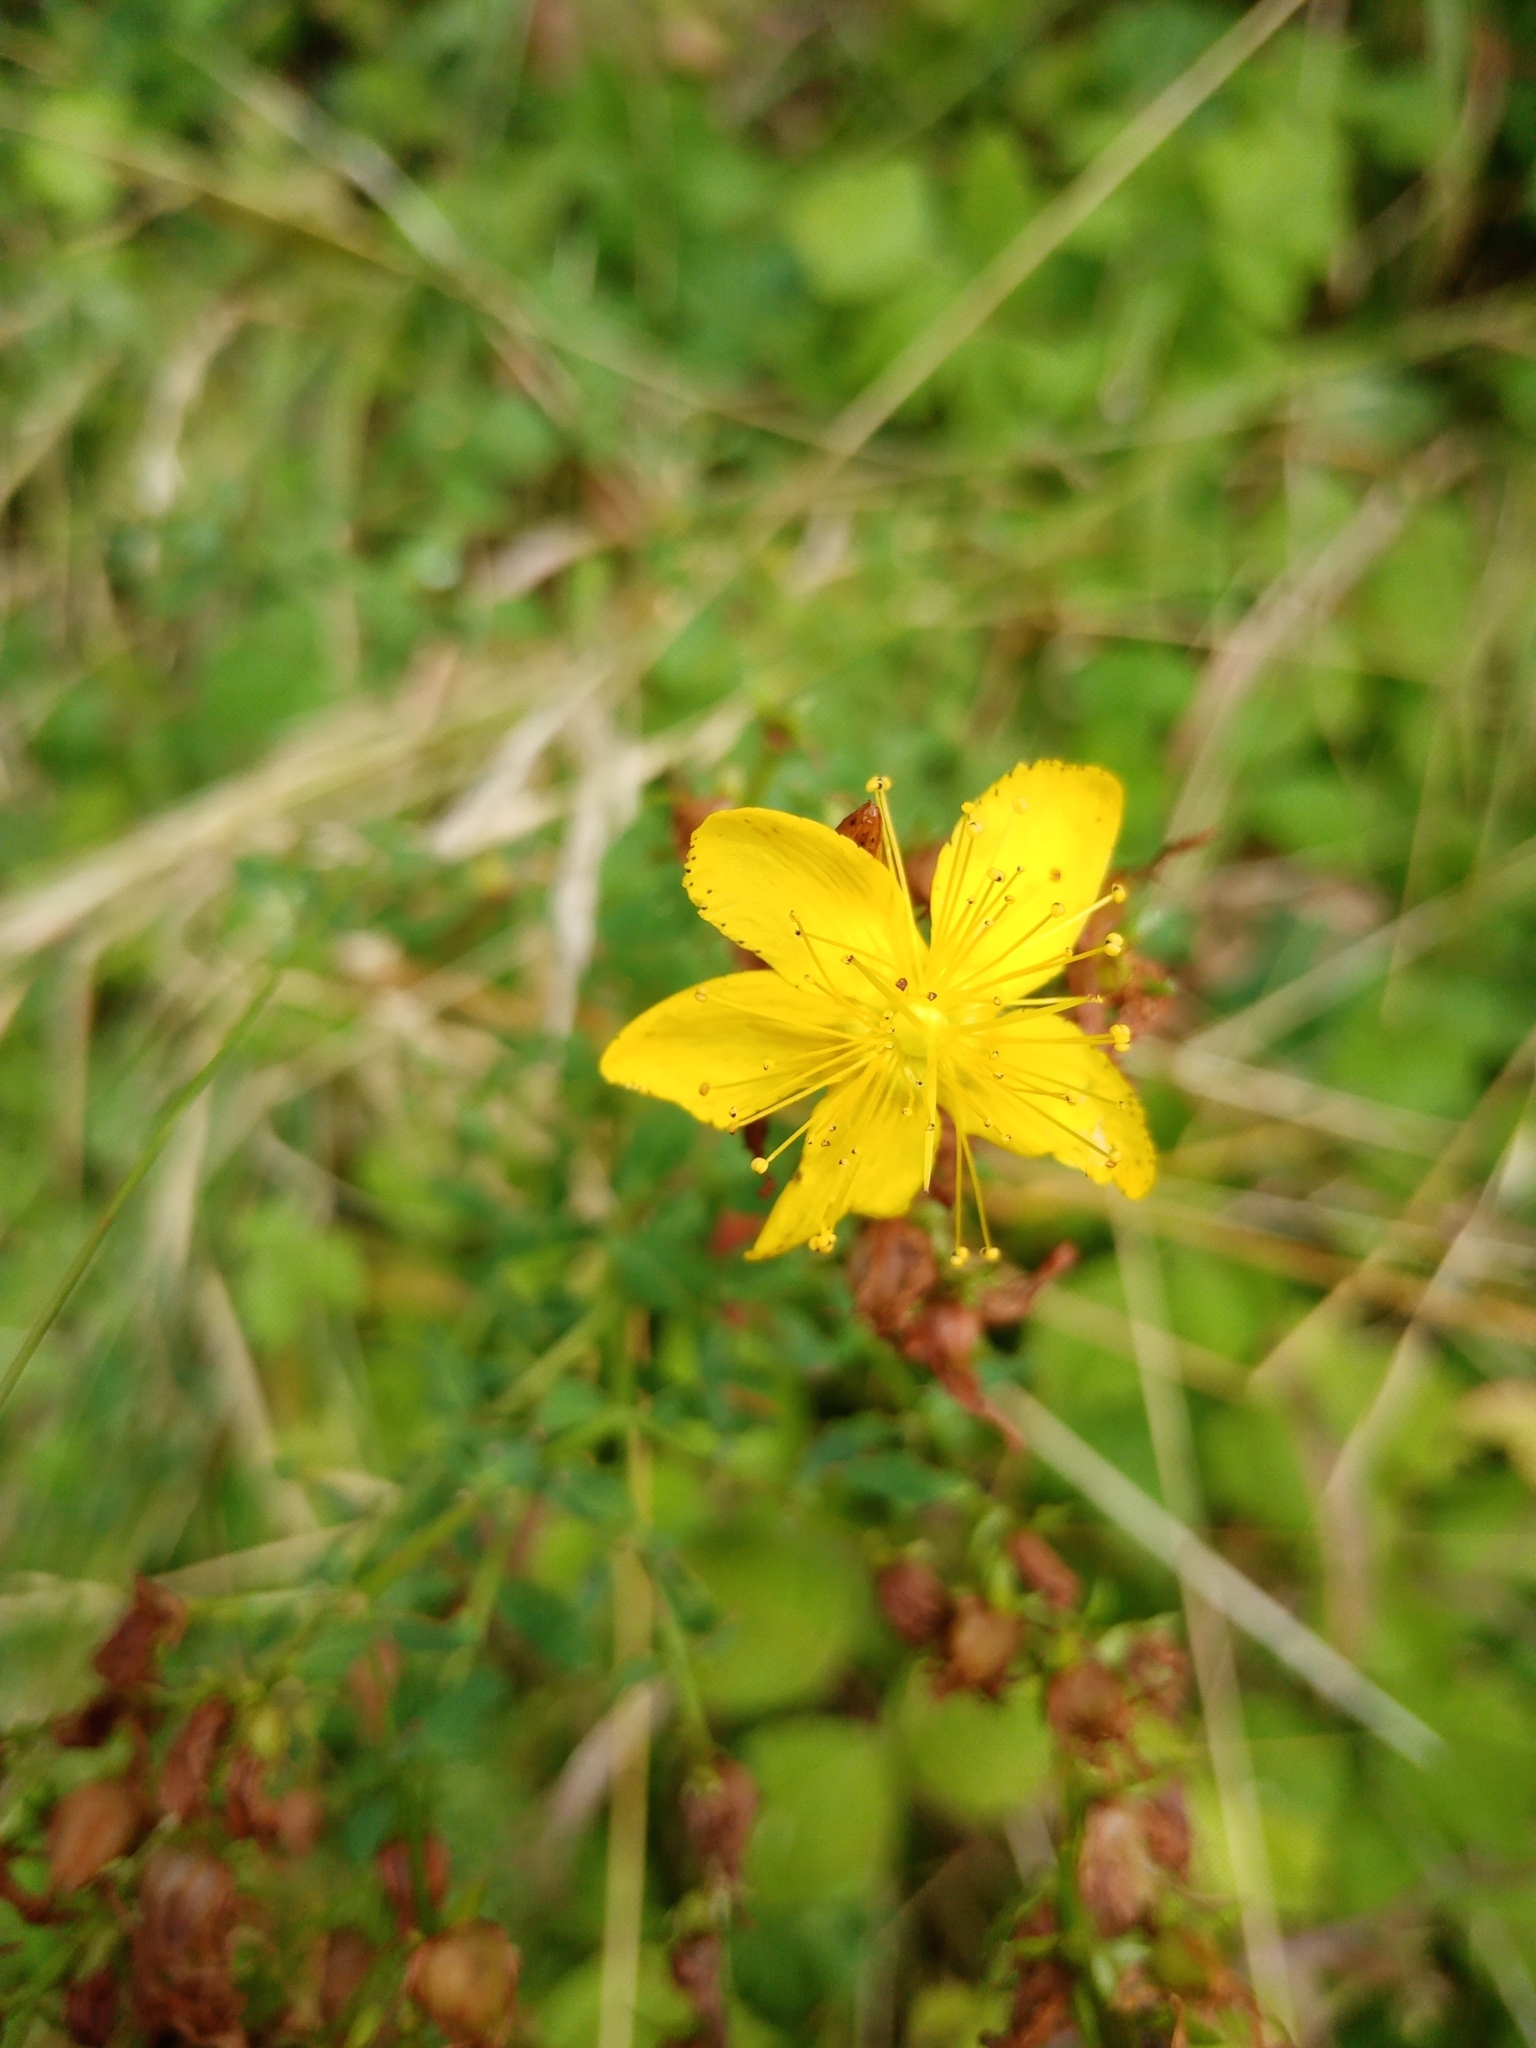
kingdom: Plantae
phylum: Tracheophyta
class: Magnoliopsida
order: Malpighiales
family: Hypericaceae
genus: Hypericum
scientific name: Hypericum perforatum
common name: Common st. johnswort
